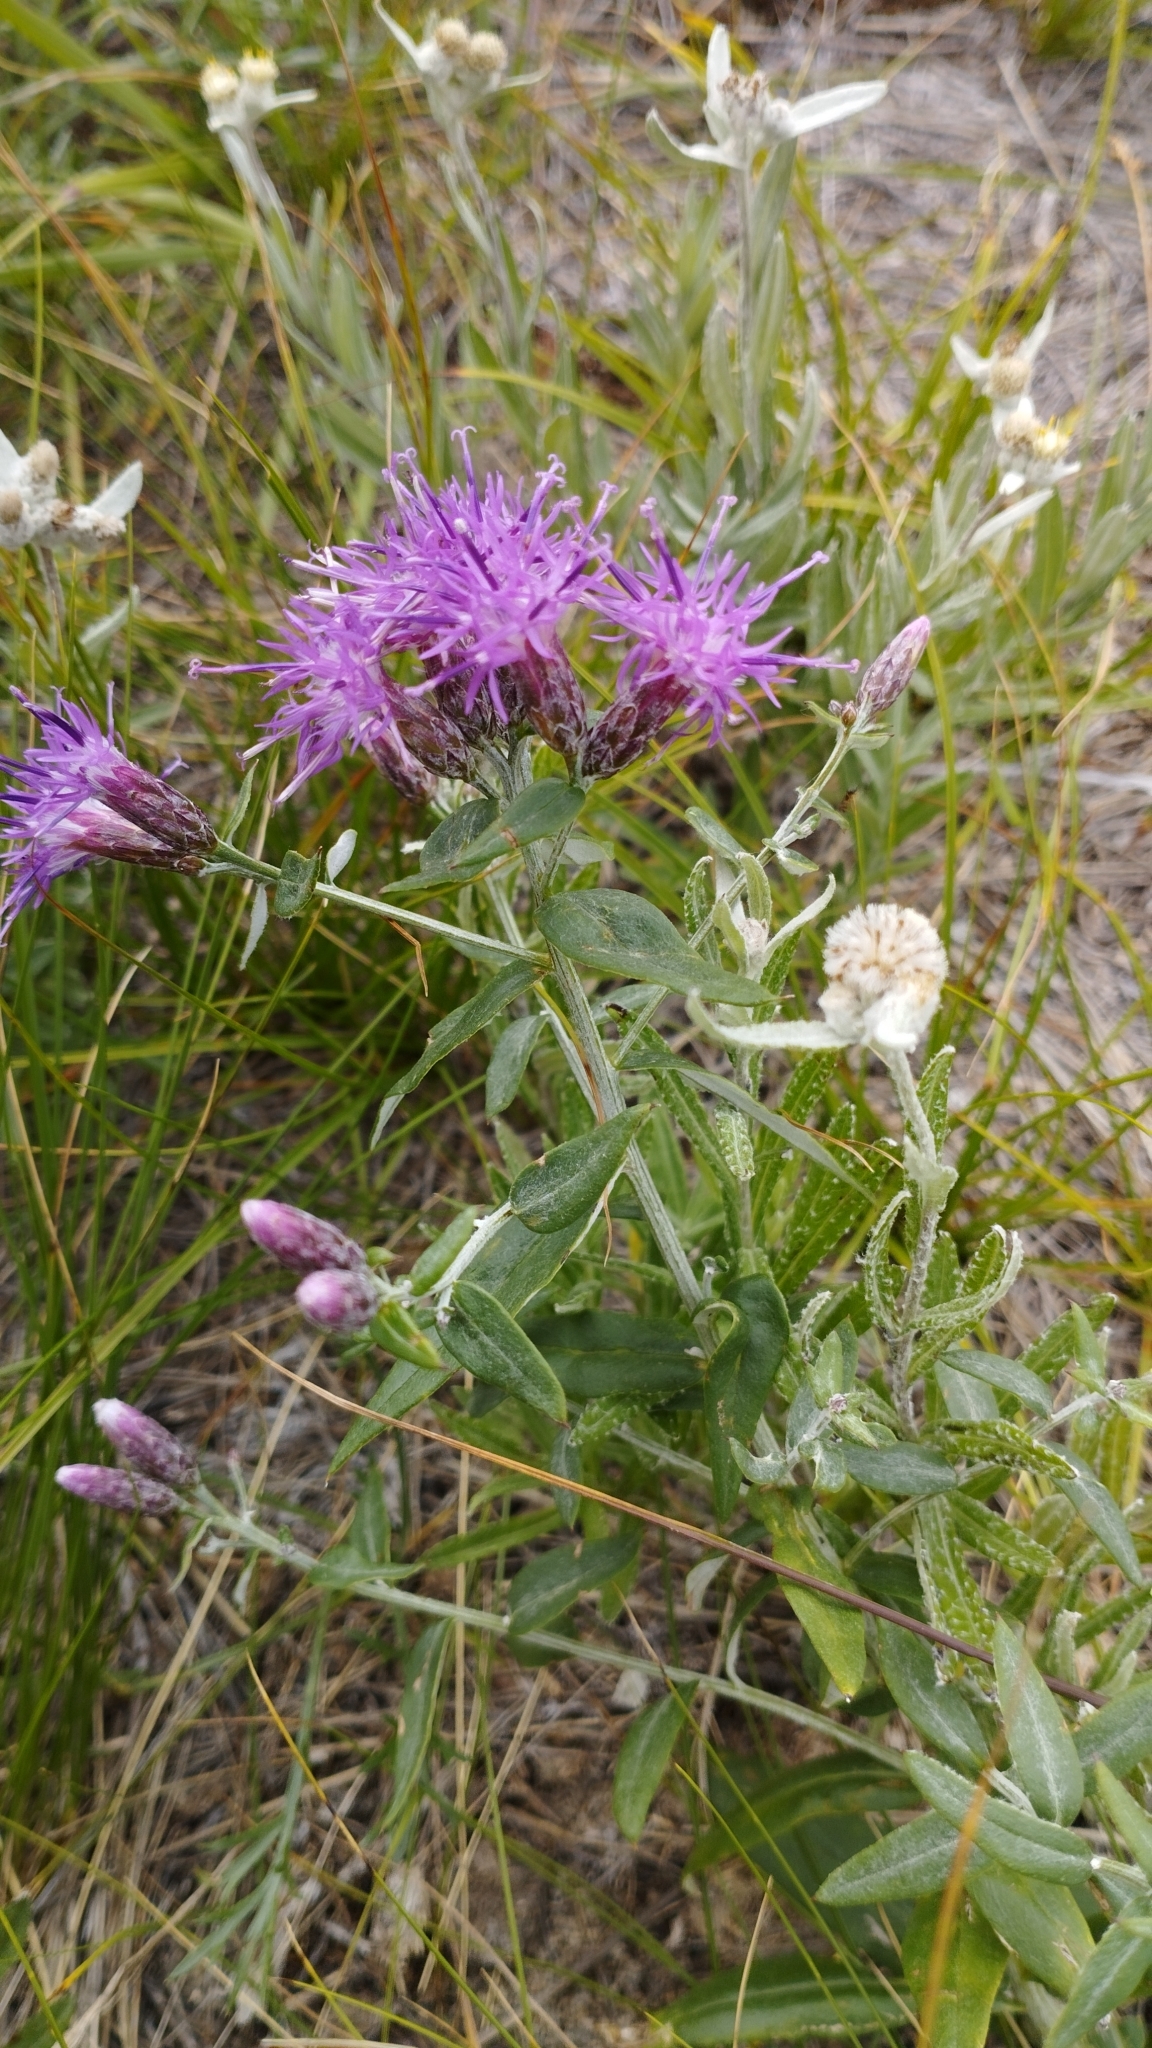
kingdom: Plantae
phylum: Tracheophyta
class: Magnoliopsida
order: Asterales
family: Asteraceae
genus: Saussurea
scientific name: Saussurea salicifolia
